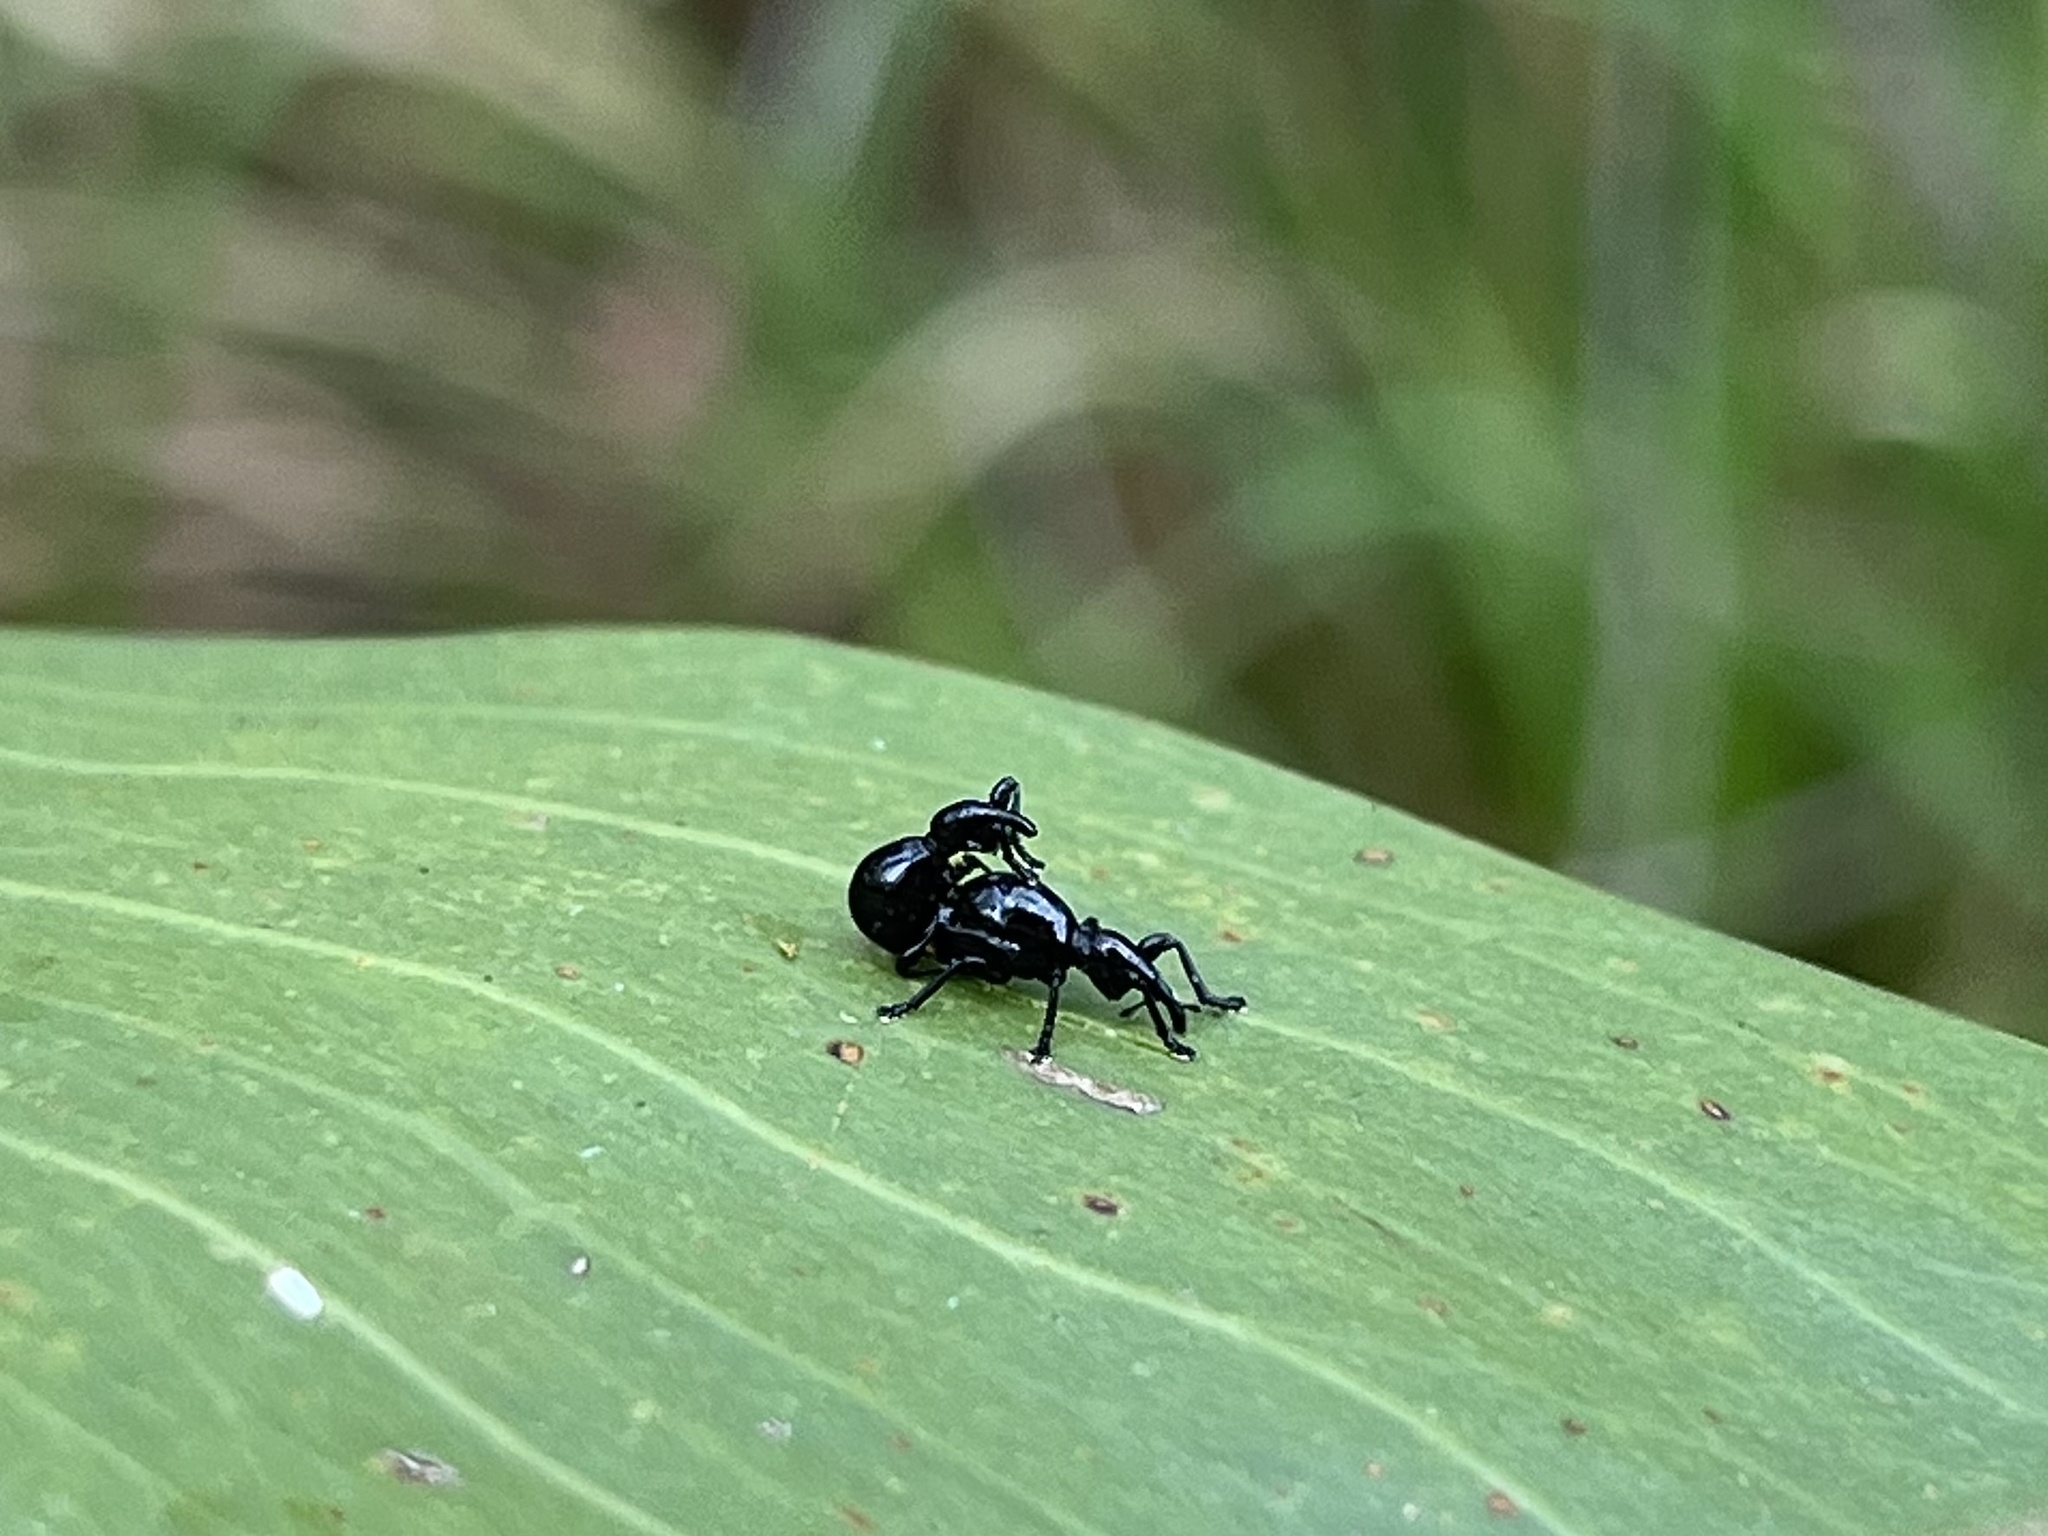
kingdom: Animalia
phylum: Arthropoda
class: Insecta
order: Coleoptera
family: Brentidae
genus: Rhynolaccus
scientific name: Rhynolaccus formicarius
